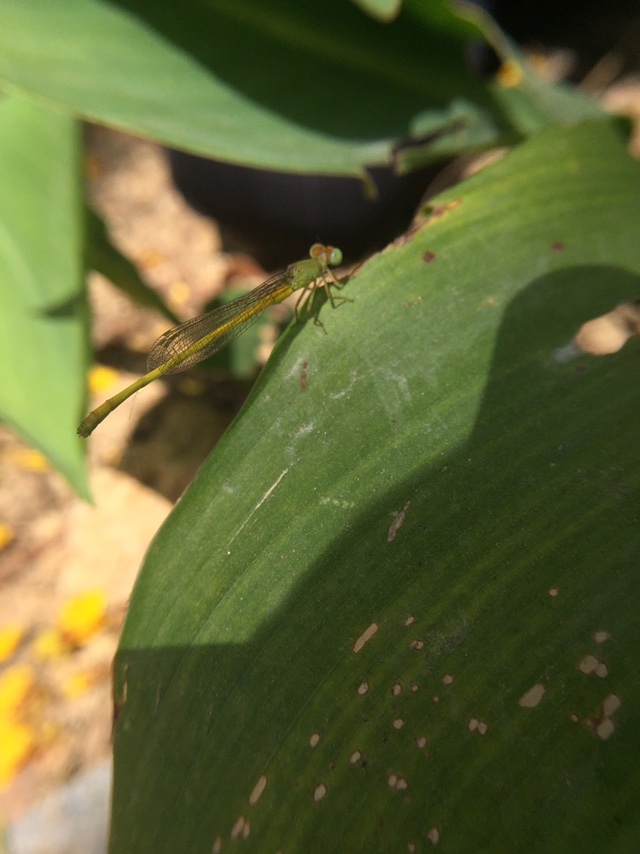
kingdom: Animalia
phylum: Arthropoda
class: Insecta
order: Odonata
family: Coenagrionidae
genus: Ceriagrion
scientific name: Ceriagrion coromandelianum
